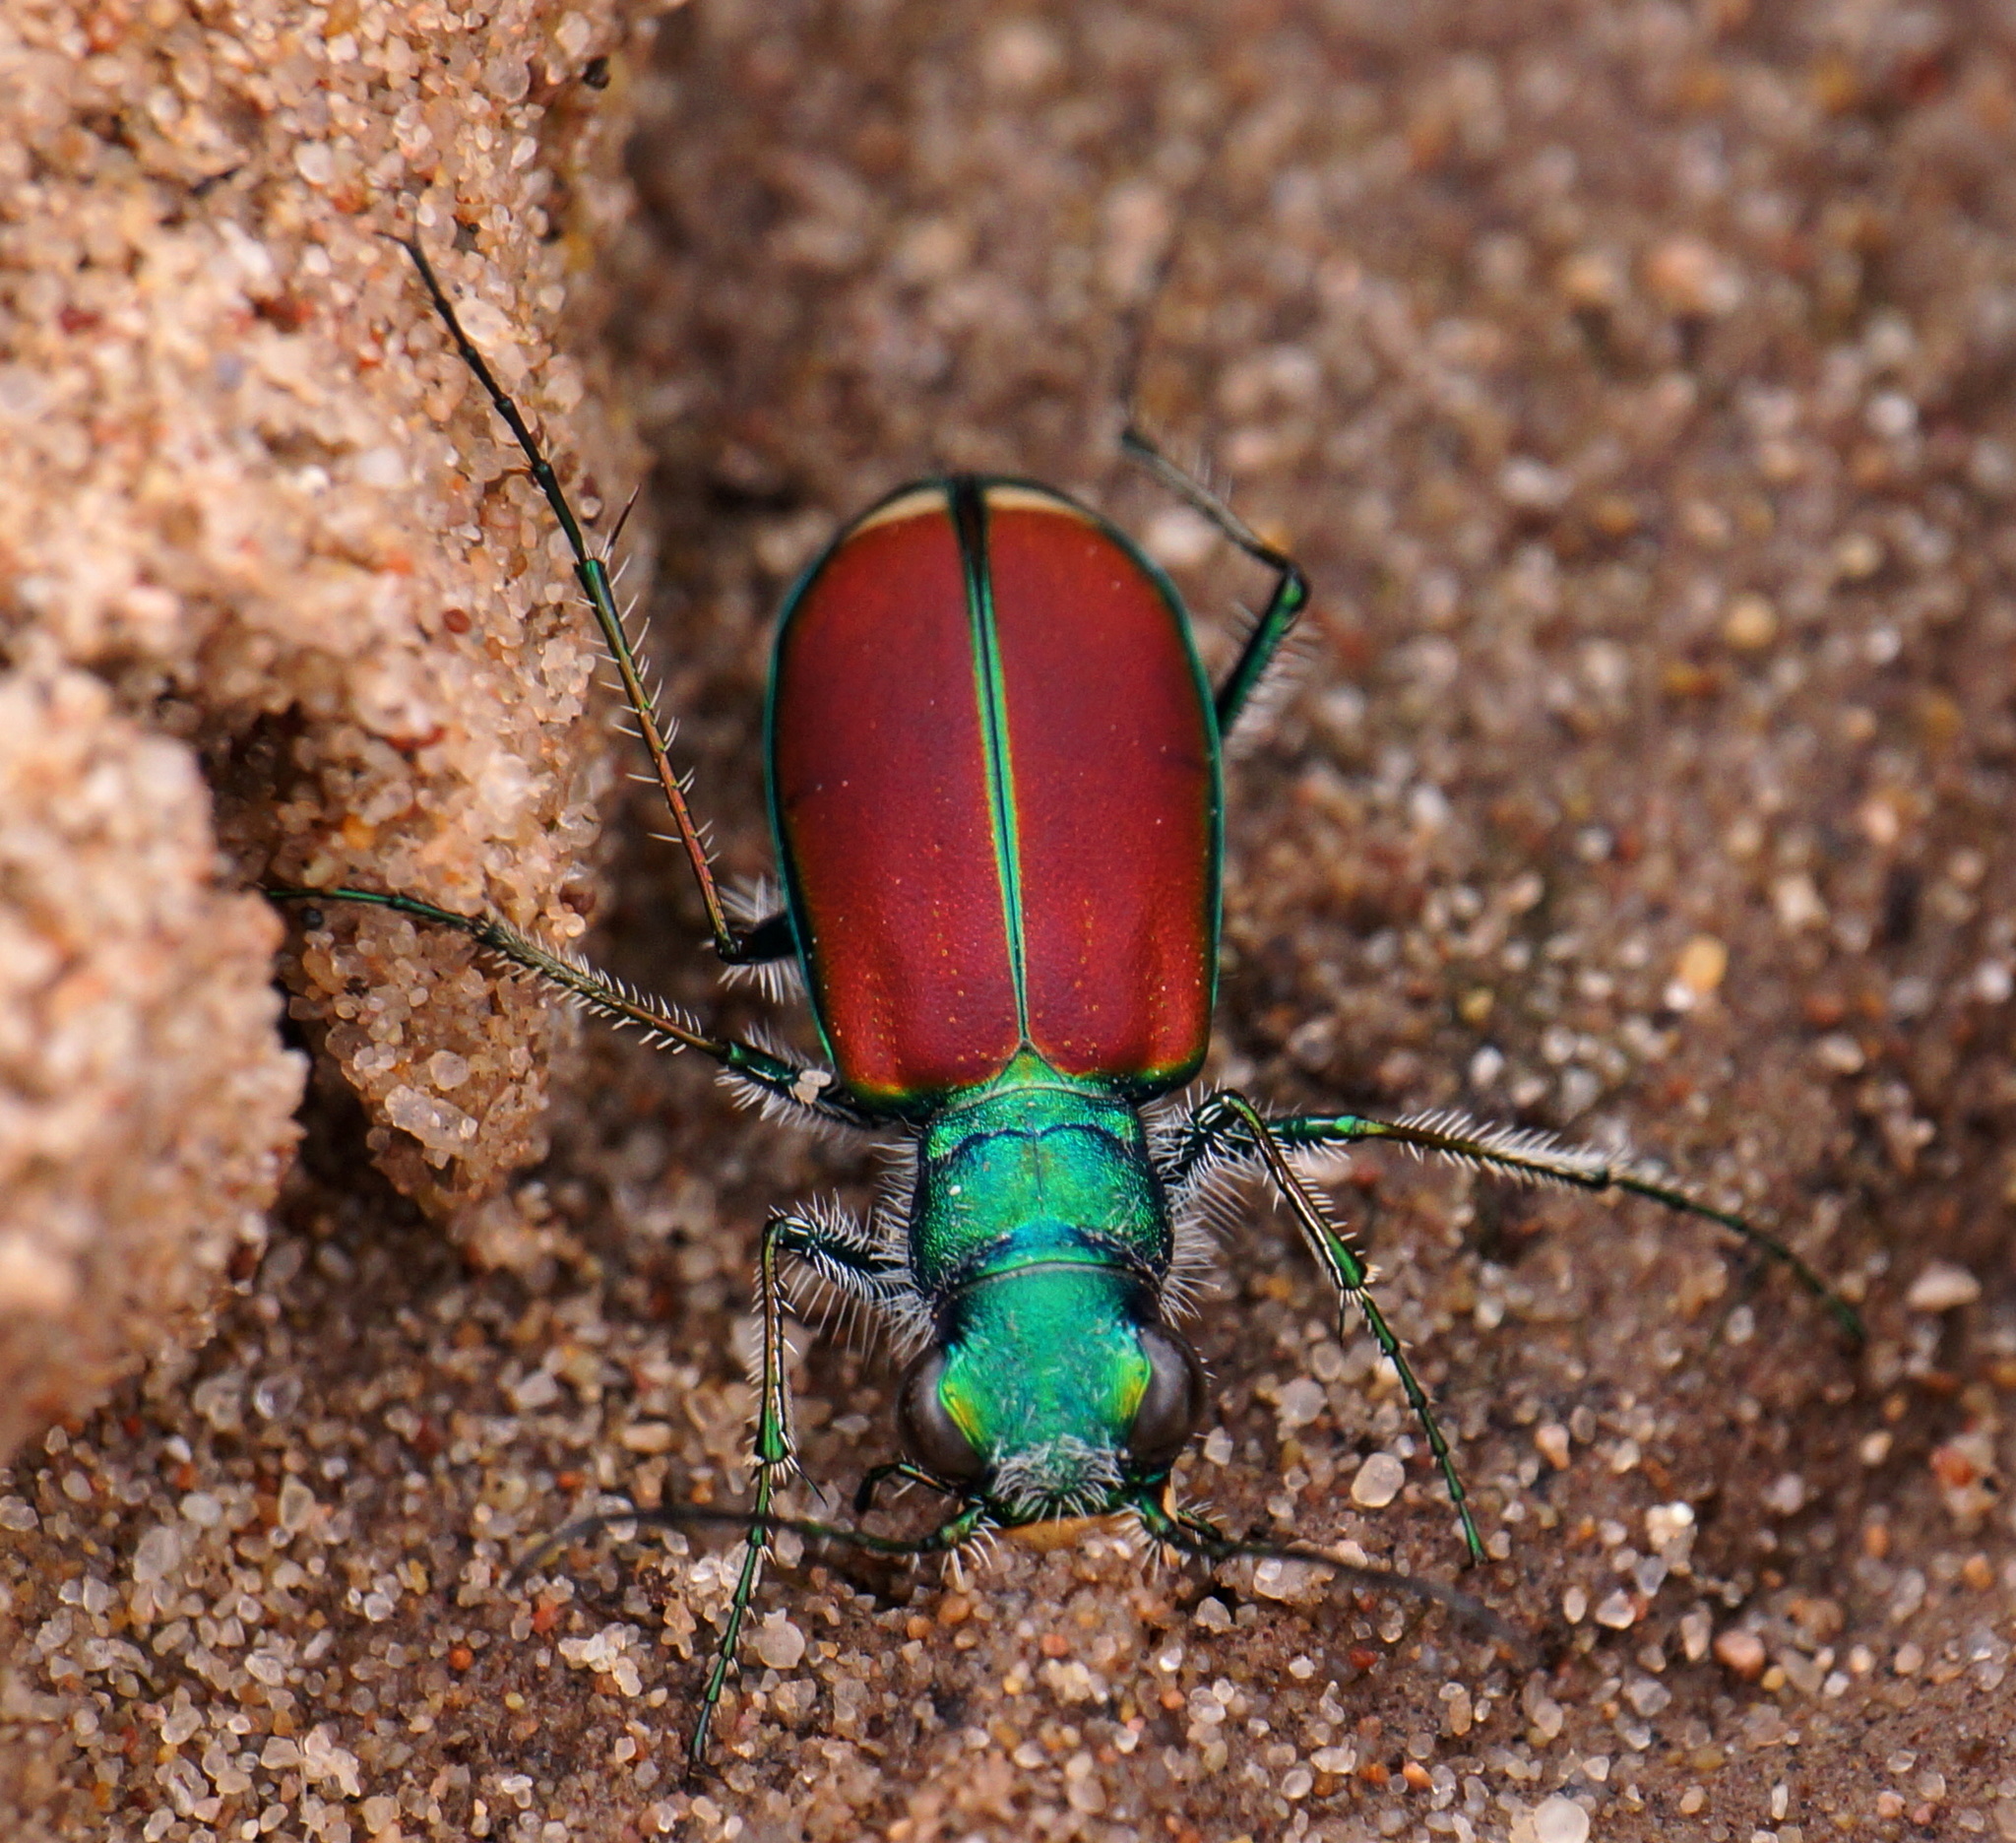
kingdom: Animalia
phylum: Arthropoda
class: Insecta
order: Coleoptera
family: Carabidae
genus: Cicindela
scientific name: Cicindela splendida
